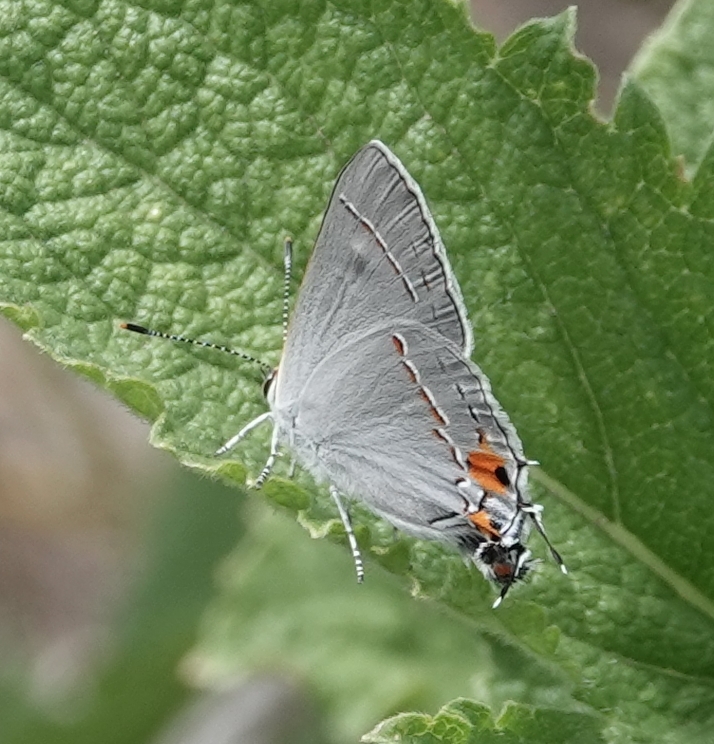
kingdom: Animalia
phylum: Arthropoda
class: Insecta
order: Lepidoptera
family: Lycaenidae
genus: Strymon
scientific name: Strymon melinus
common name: Gray hairstreak
